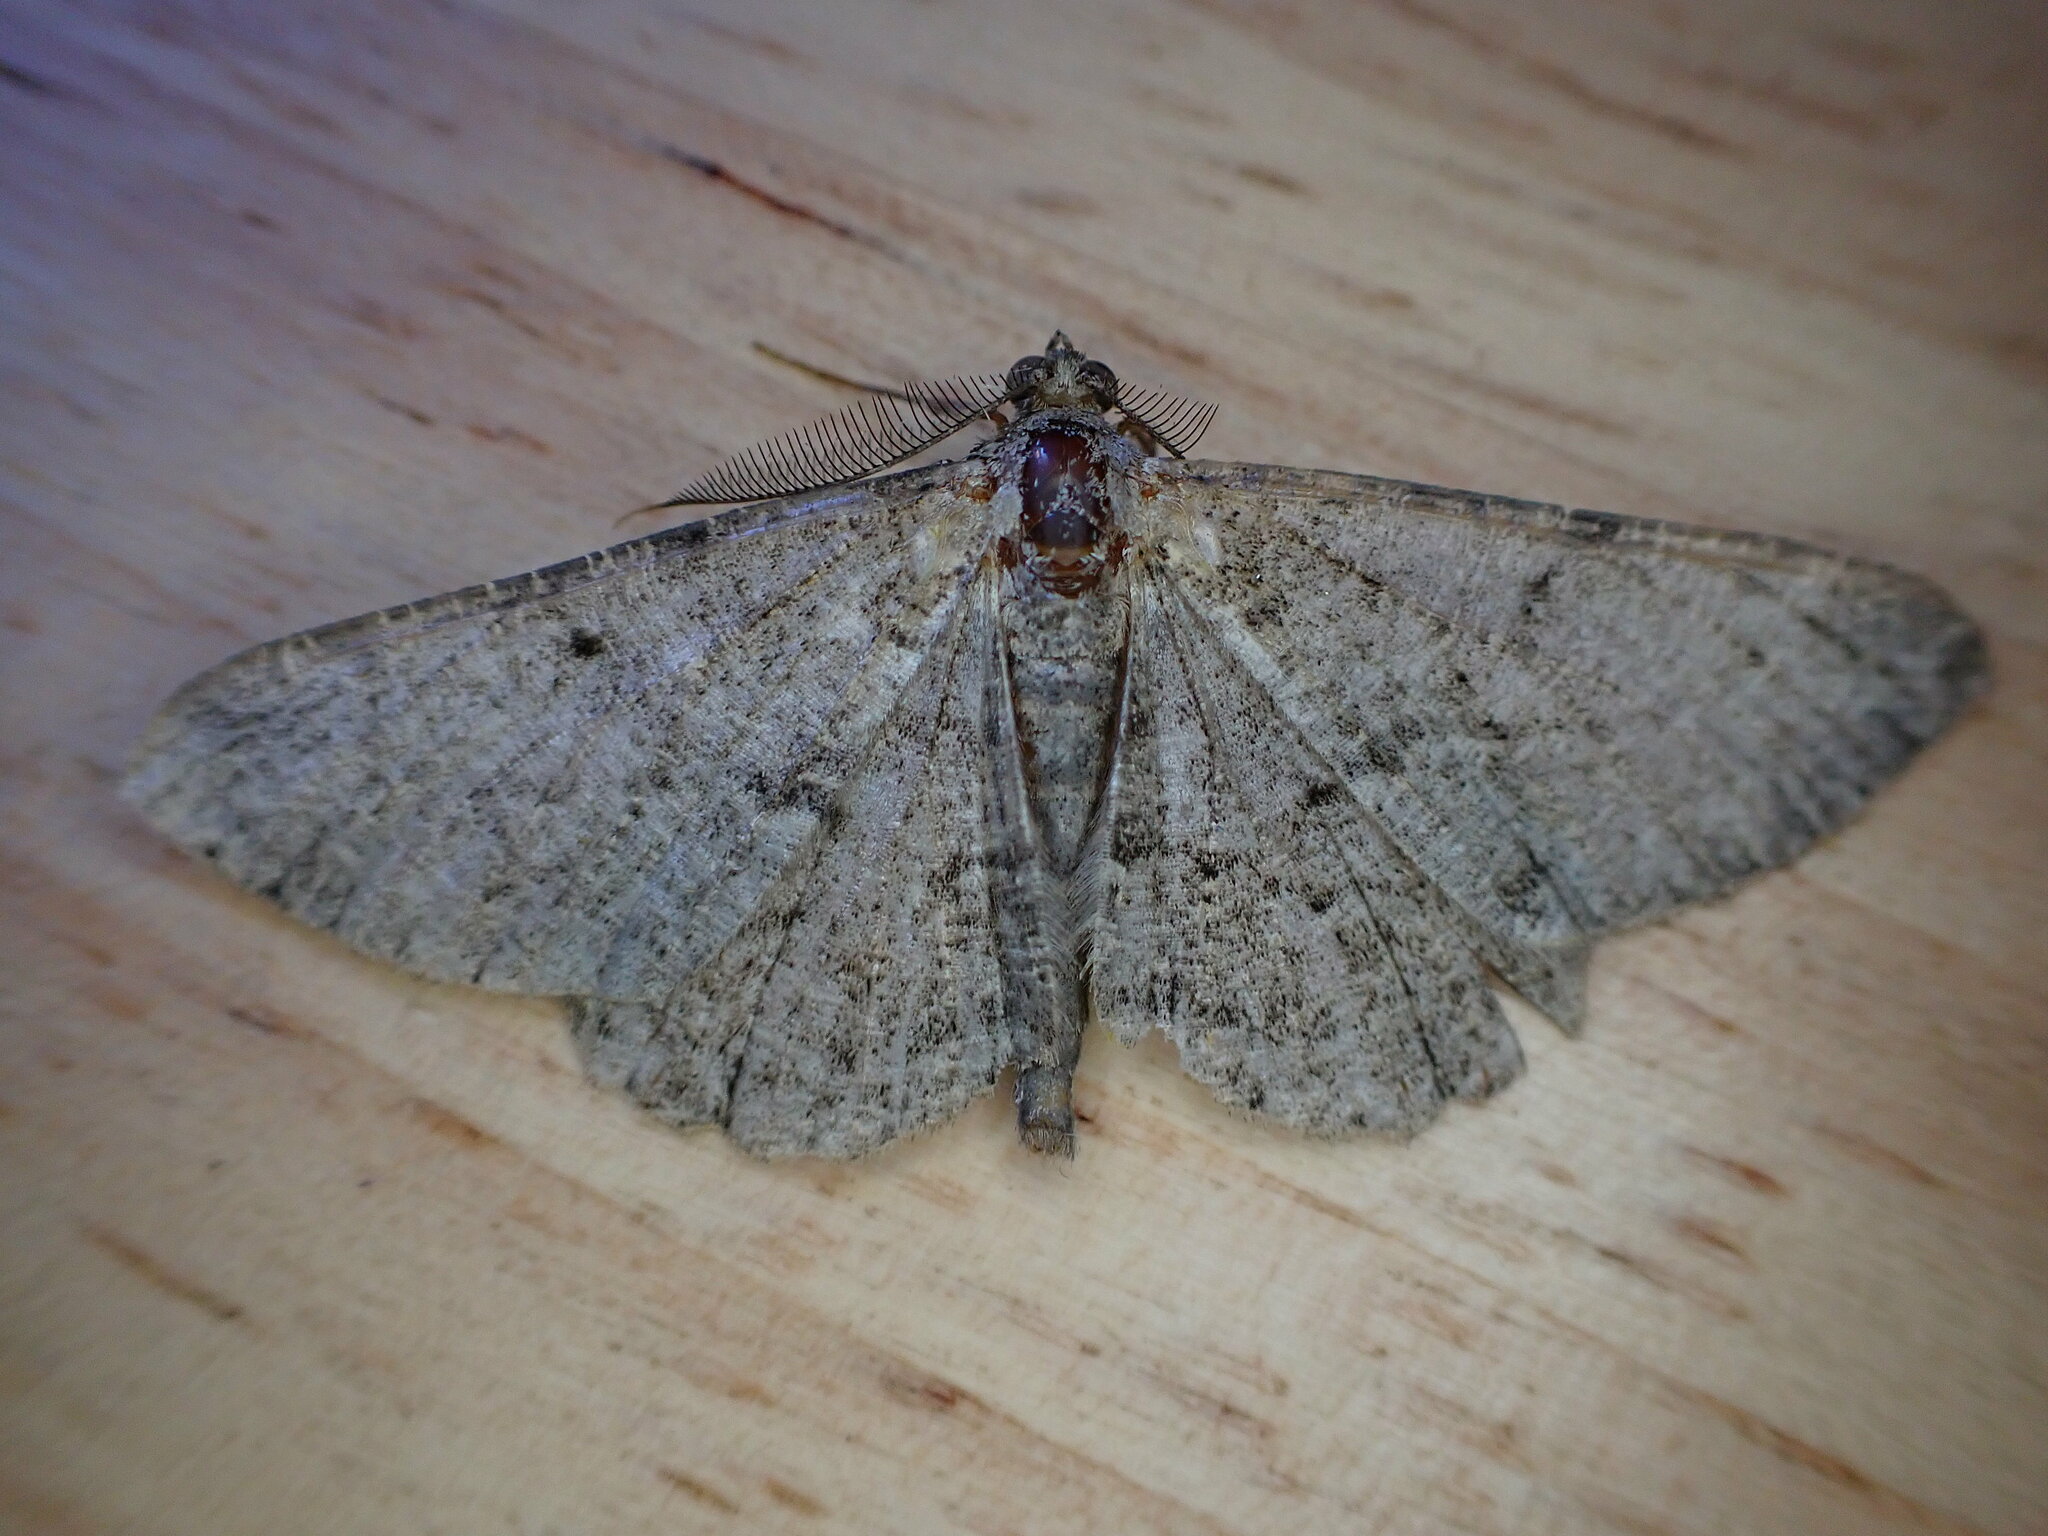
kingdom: Animalia
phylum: Arthropoda
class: Insecta
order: Lepidoptera
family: Geometridae
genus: Peribatodes
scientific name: Peribatodes rhomboidaria
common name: Willow beauty
